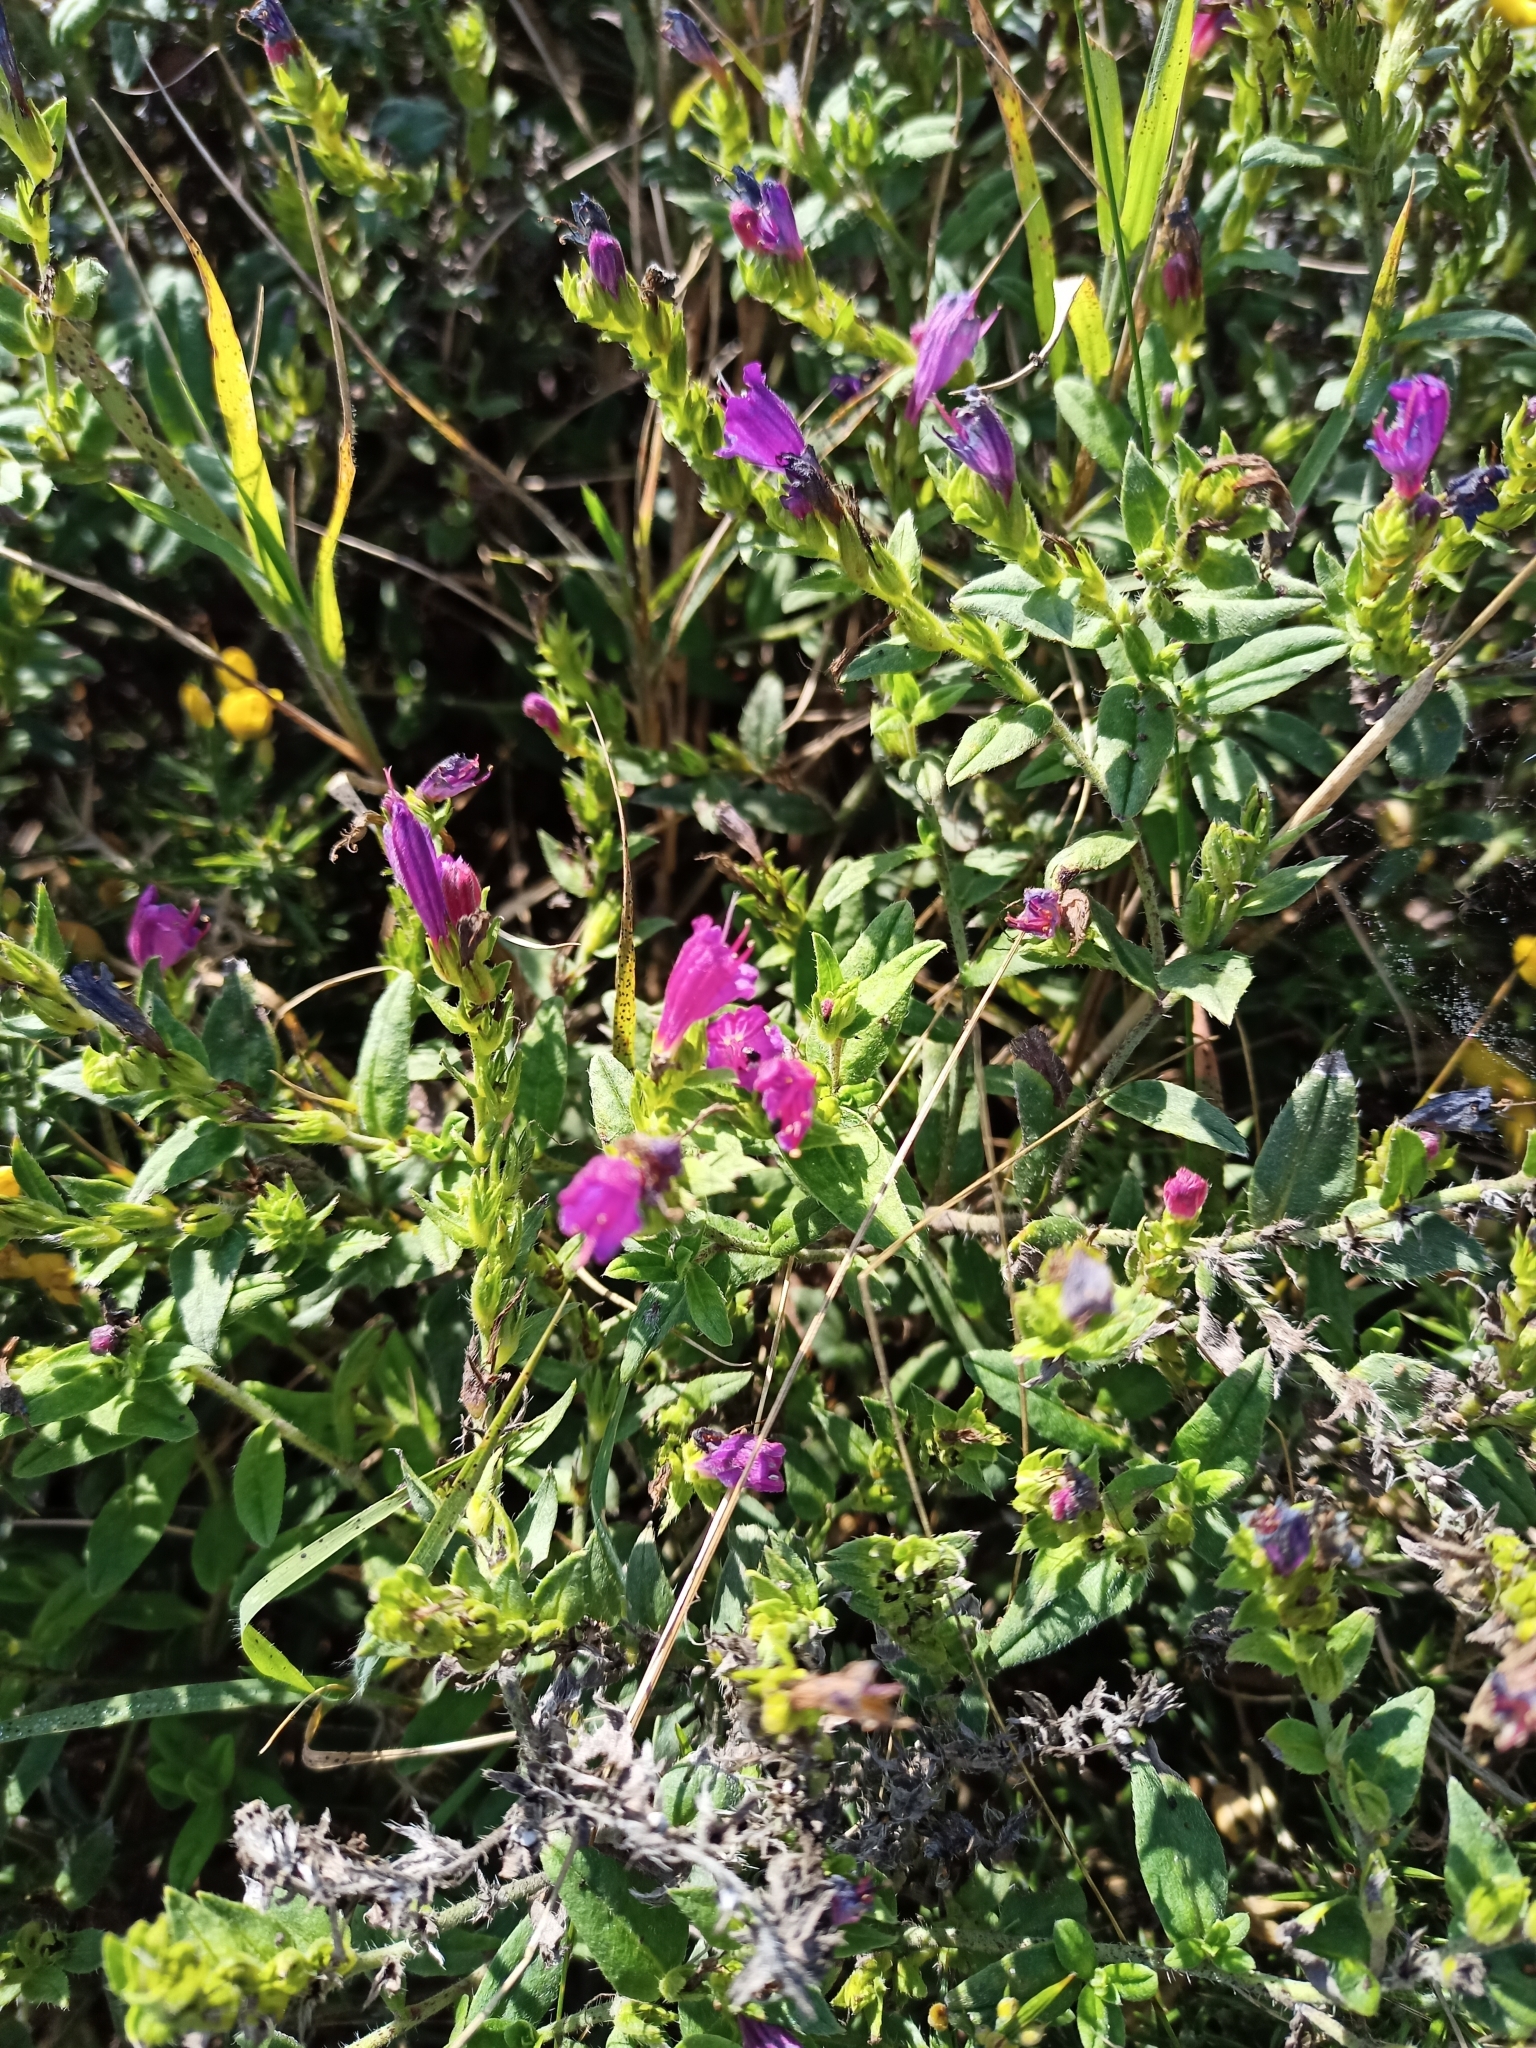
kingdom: Plantae
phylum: Tracheophyta
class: Magnoliopsida
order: Boraginales
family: Boraginaceae
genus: Echium
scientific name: Echium rosulatum
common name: Lax viper's-bugloss
